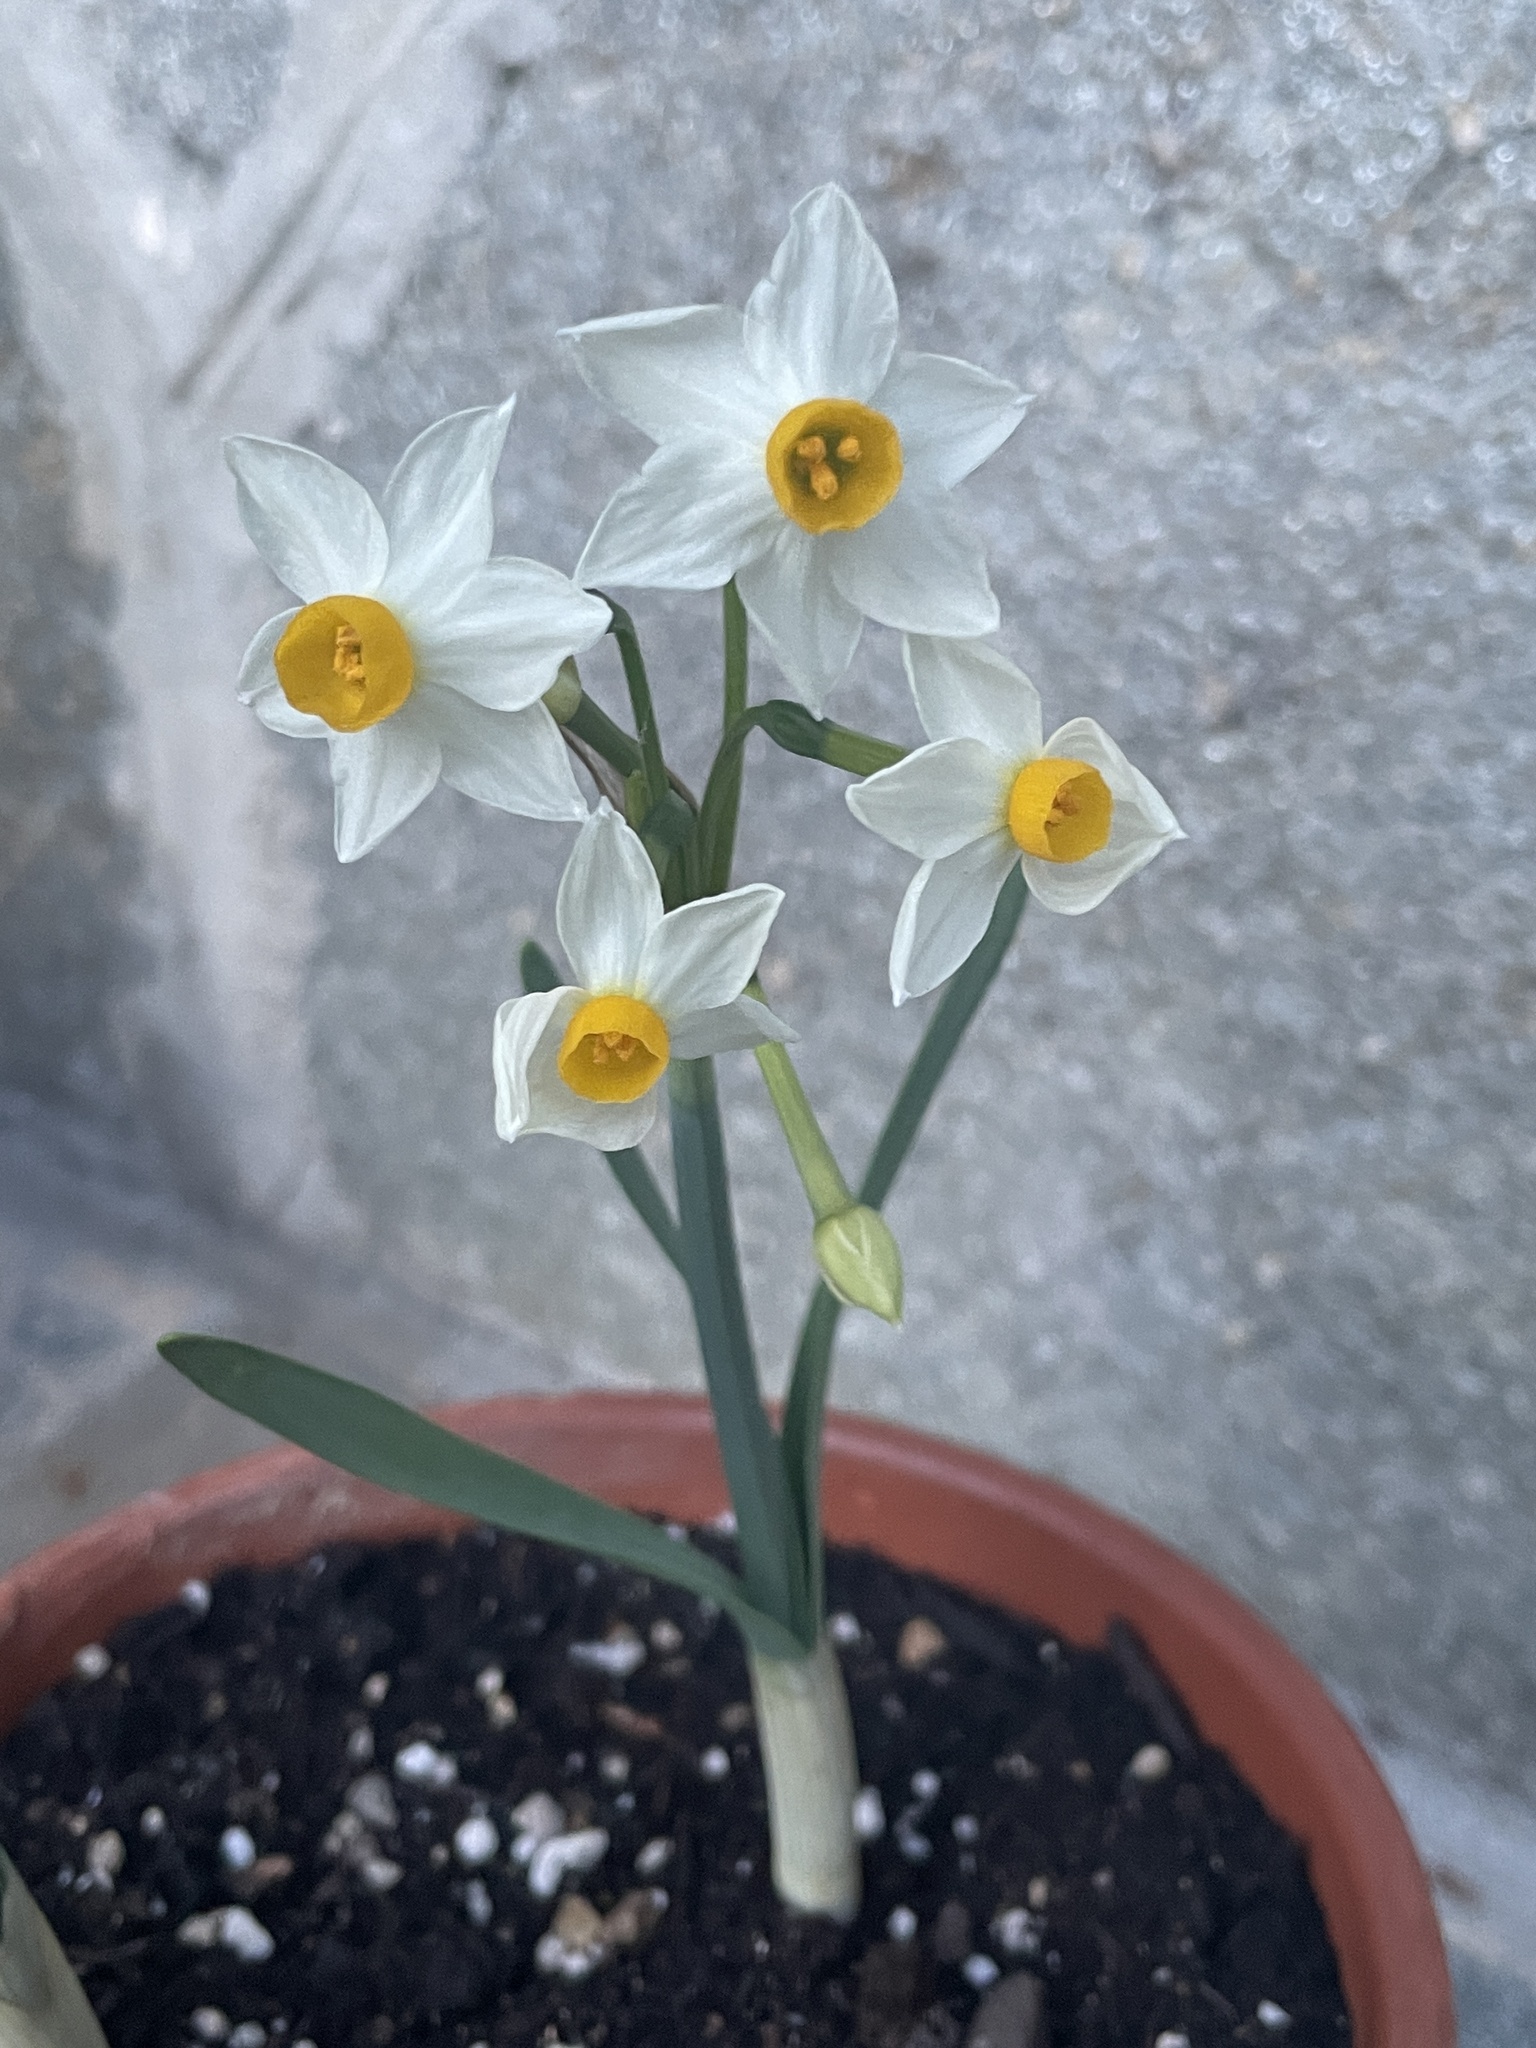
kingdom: Plantae
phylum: Tracheophyta
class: Liliopsida
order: Asparagales
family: Amaryllidaceae
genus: Narcissus
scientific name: Narcissus tazetta
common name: Bunch-flowered daffodil
